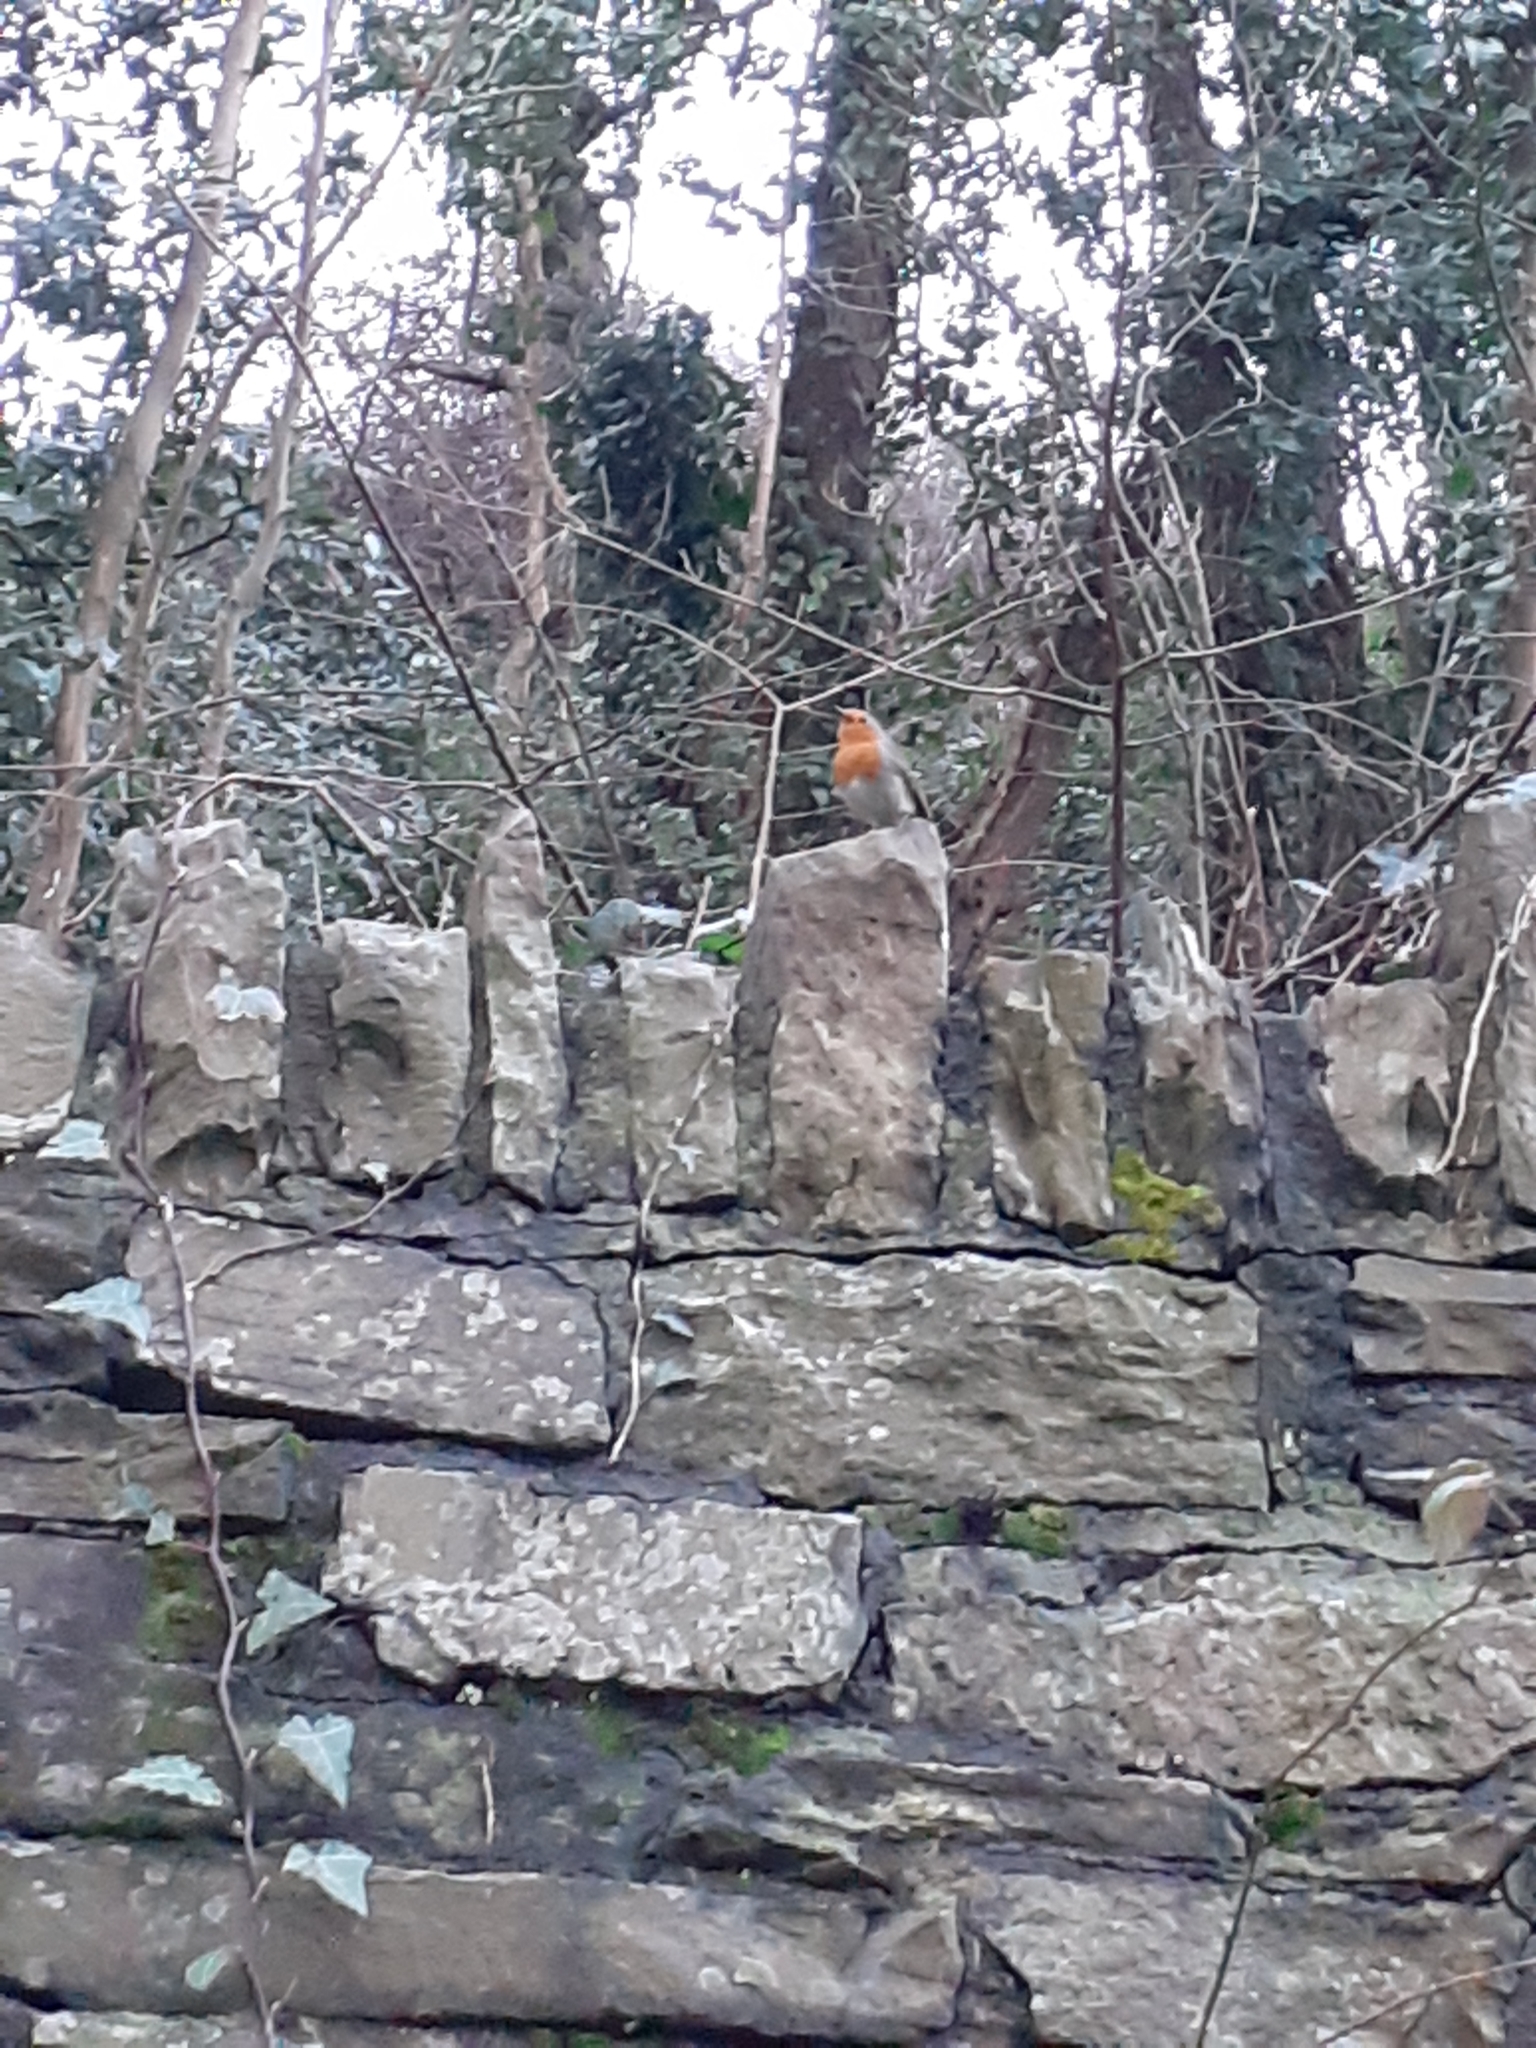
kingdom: Animalia
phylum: Chordata
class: Aves
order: Passeriformes
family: Muscicapidae
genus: Erithacus
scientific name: Erithacus rubecula
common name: European robin
